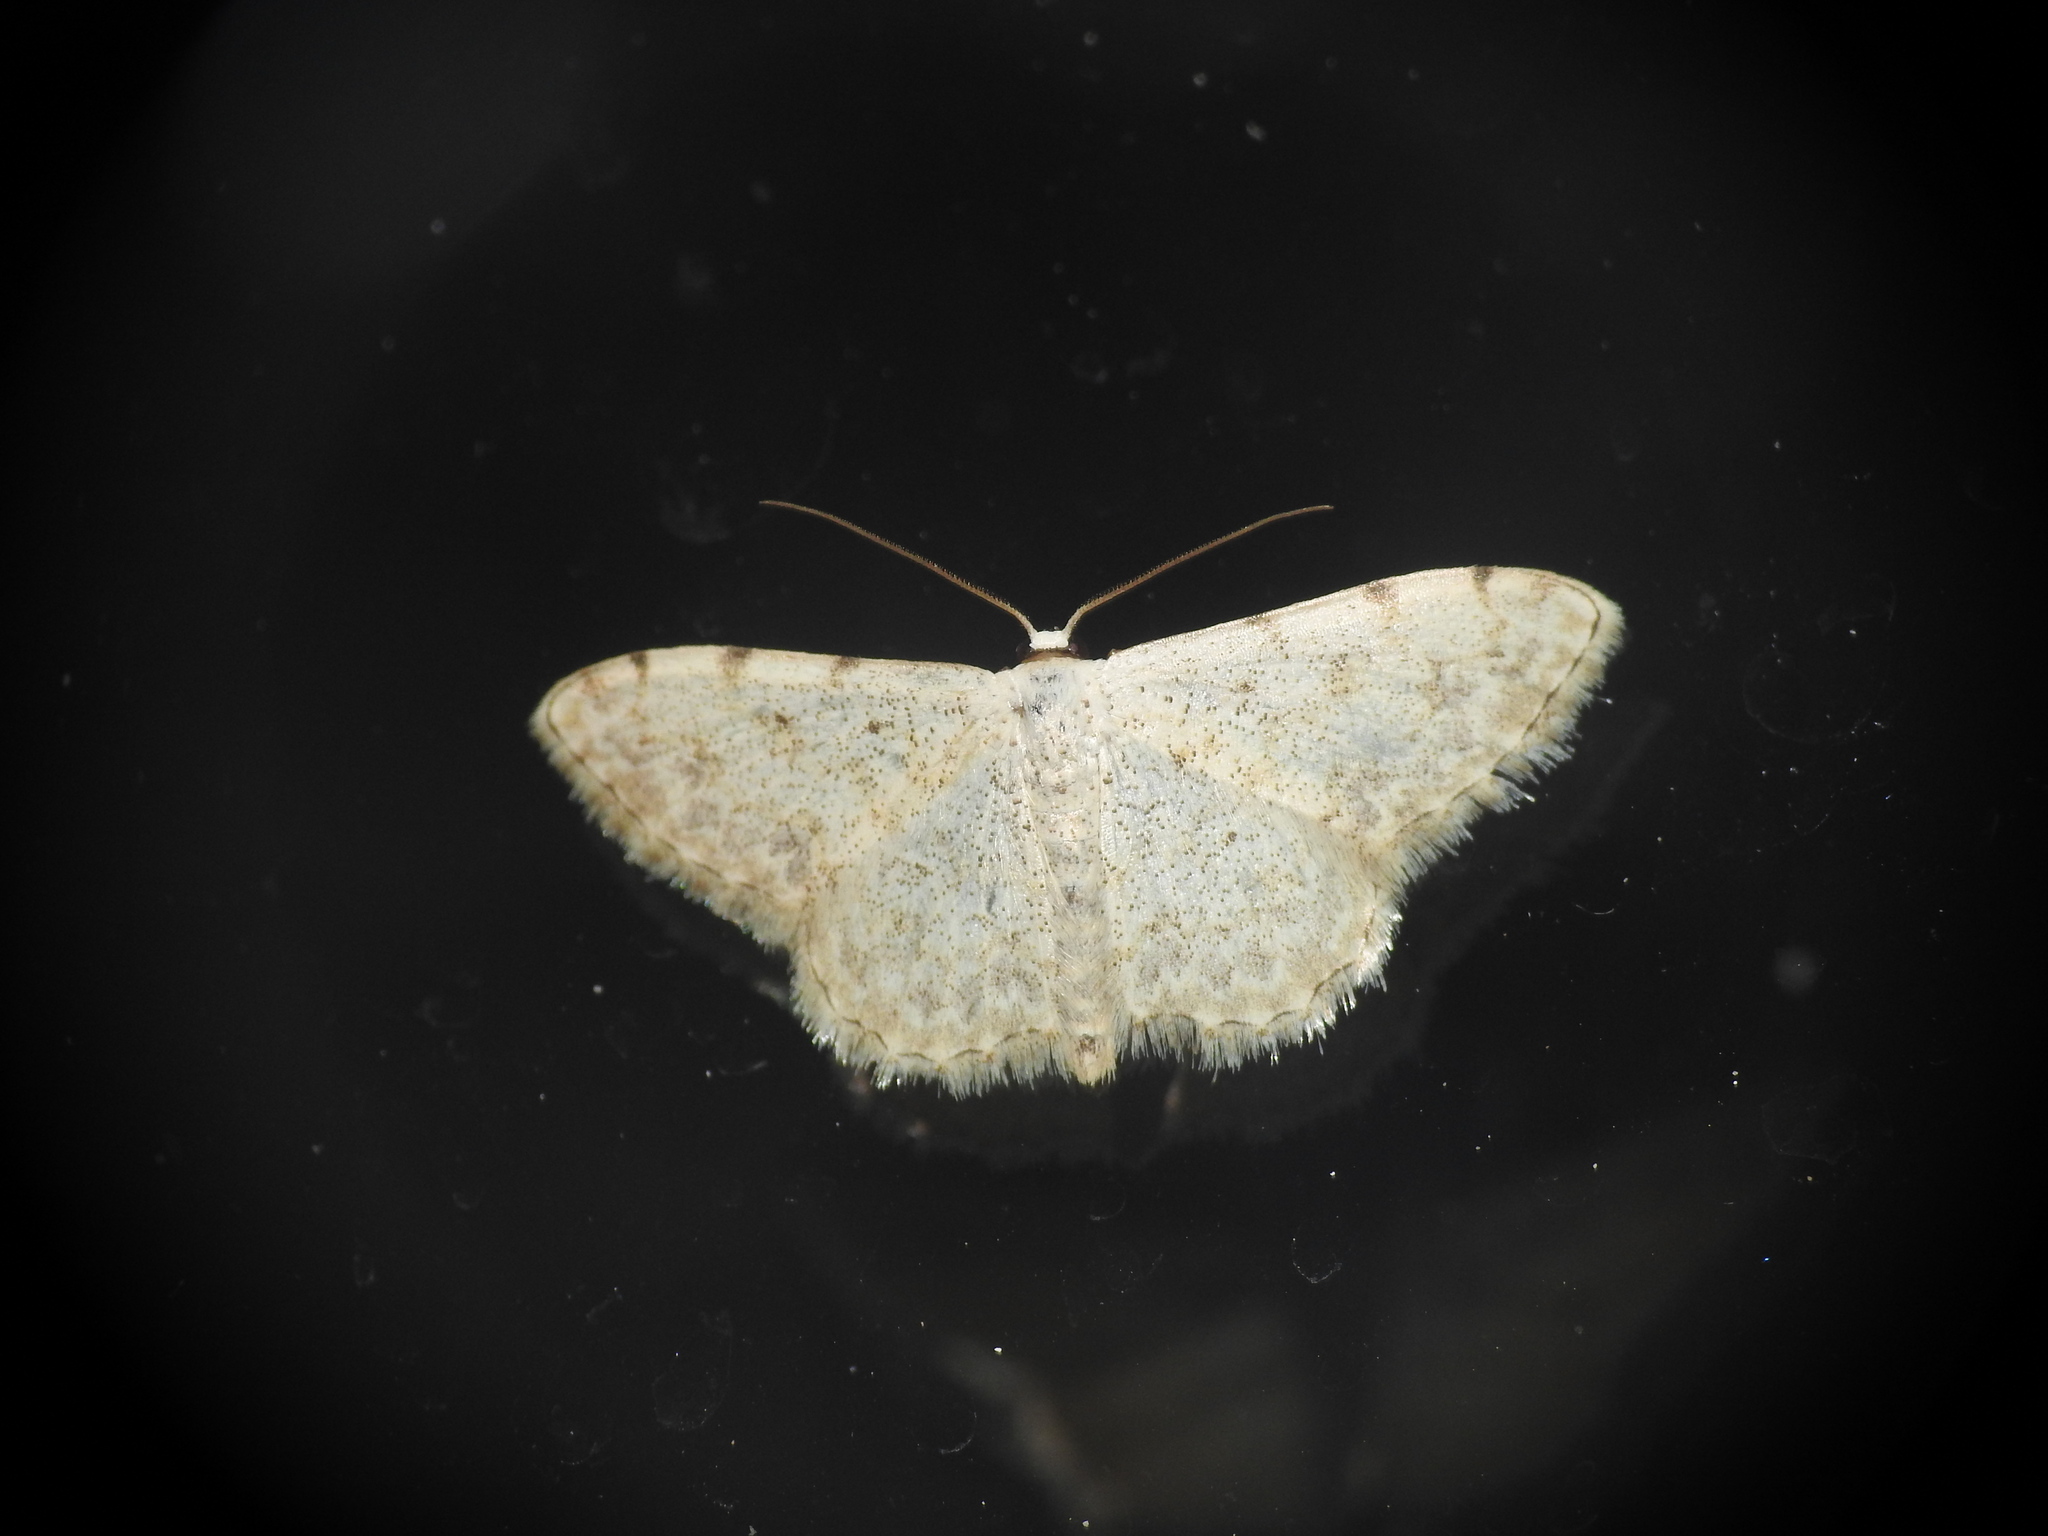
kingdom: Animalia
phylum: Arthropoda
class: Insecta
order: Lepidoptera
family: Geometridae
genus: Scopula
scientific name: Scopula submutata
